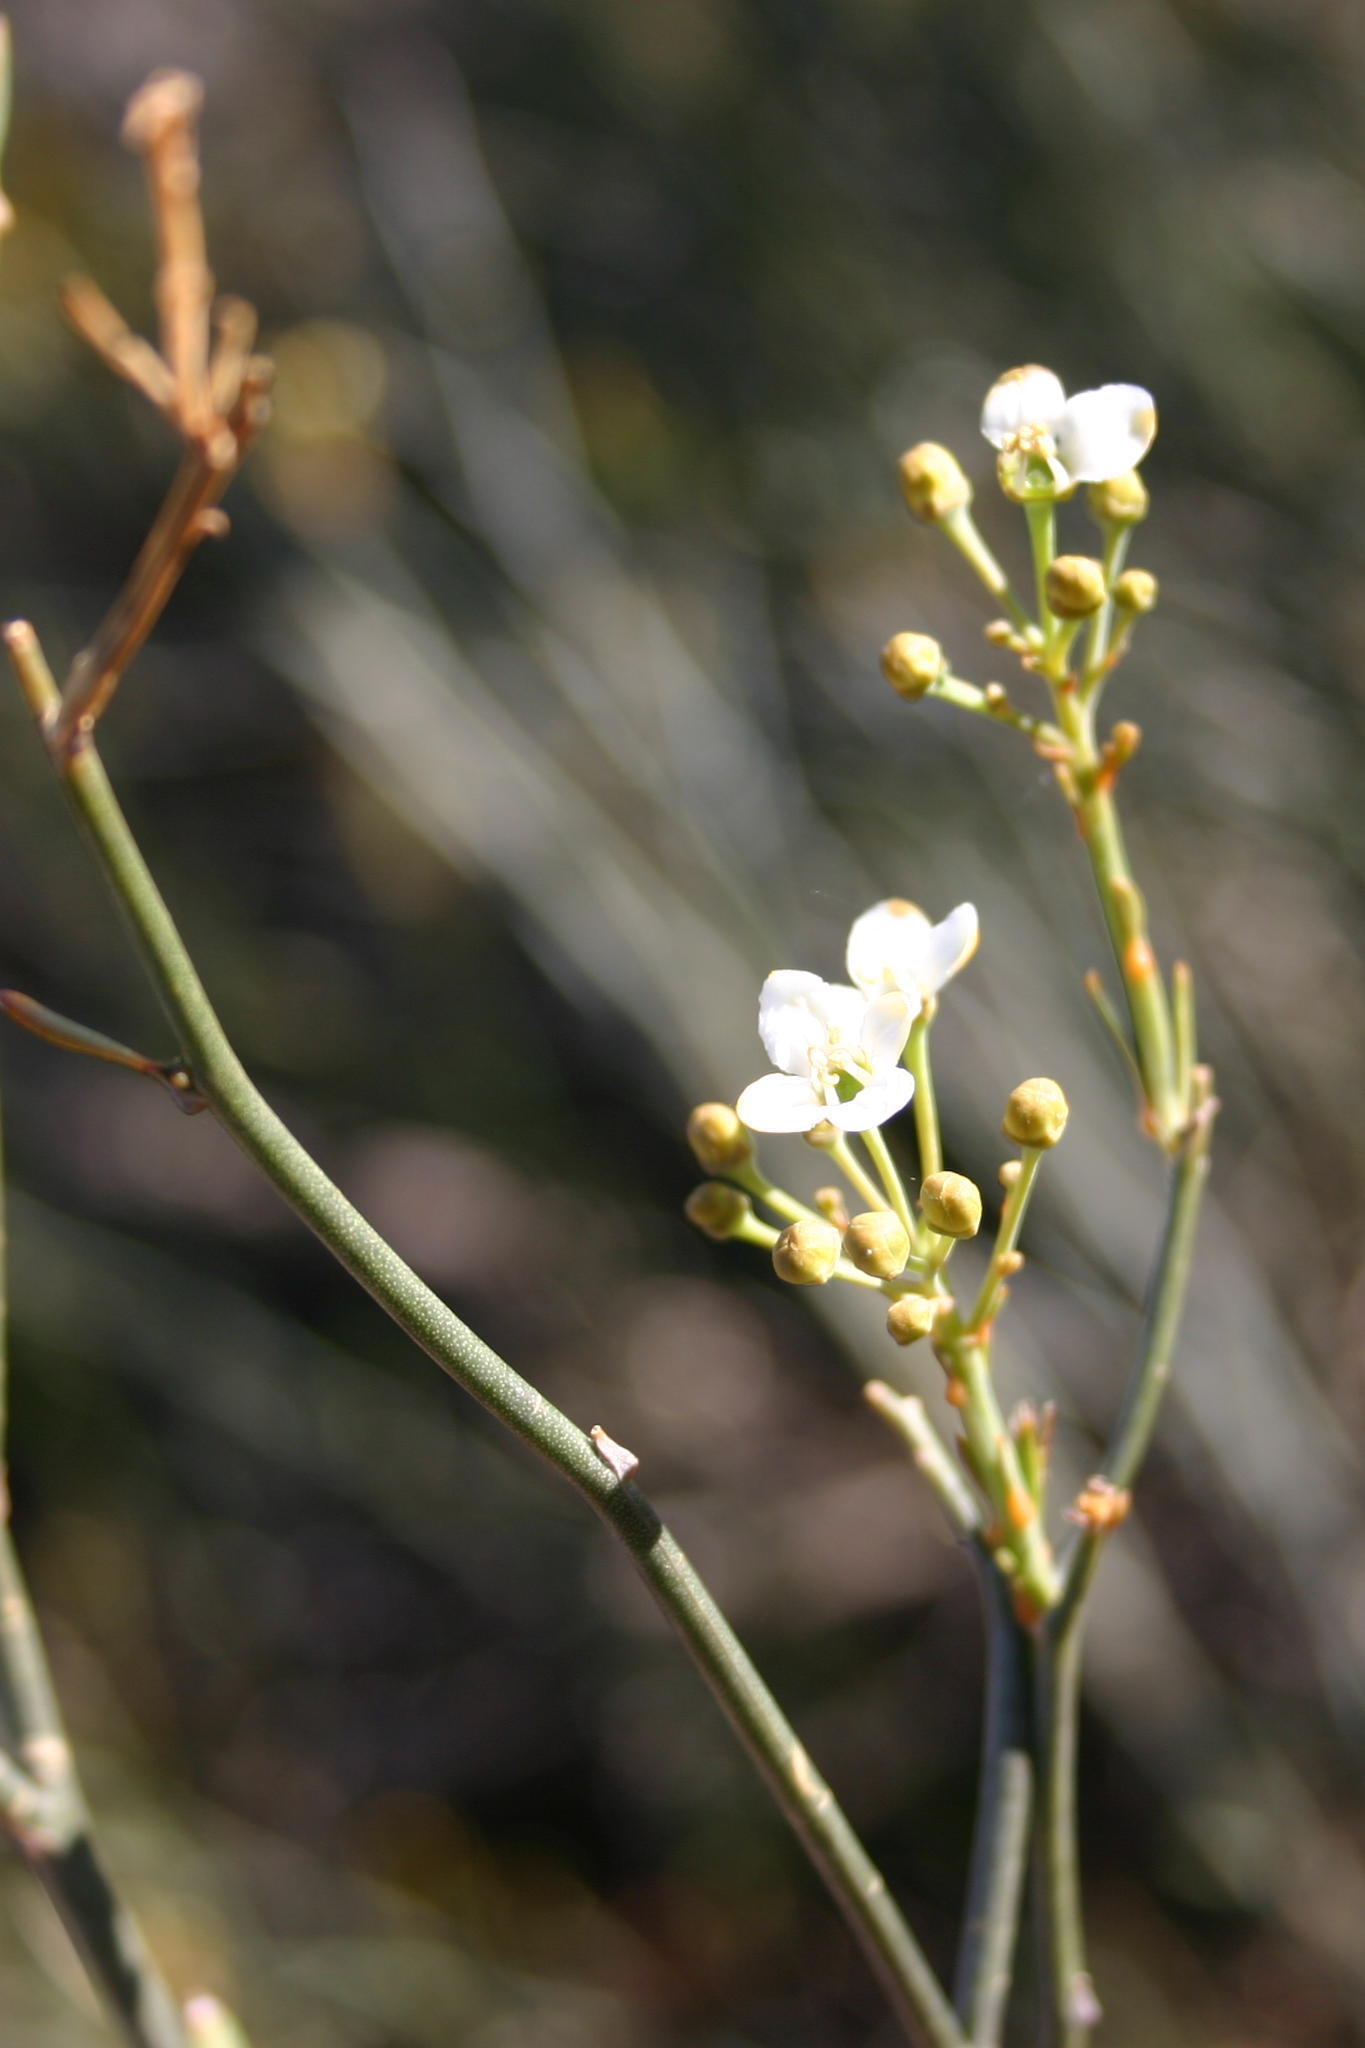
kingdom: Plantae
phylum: Tracheophyta
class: Magnoliopsida
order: Solanales
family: Montiniaceae
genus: Montinia
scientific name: Montinia caryophyllacea
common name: Wild clove-bush
